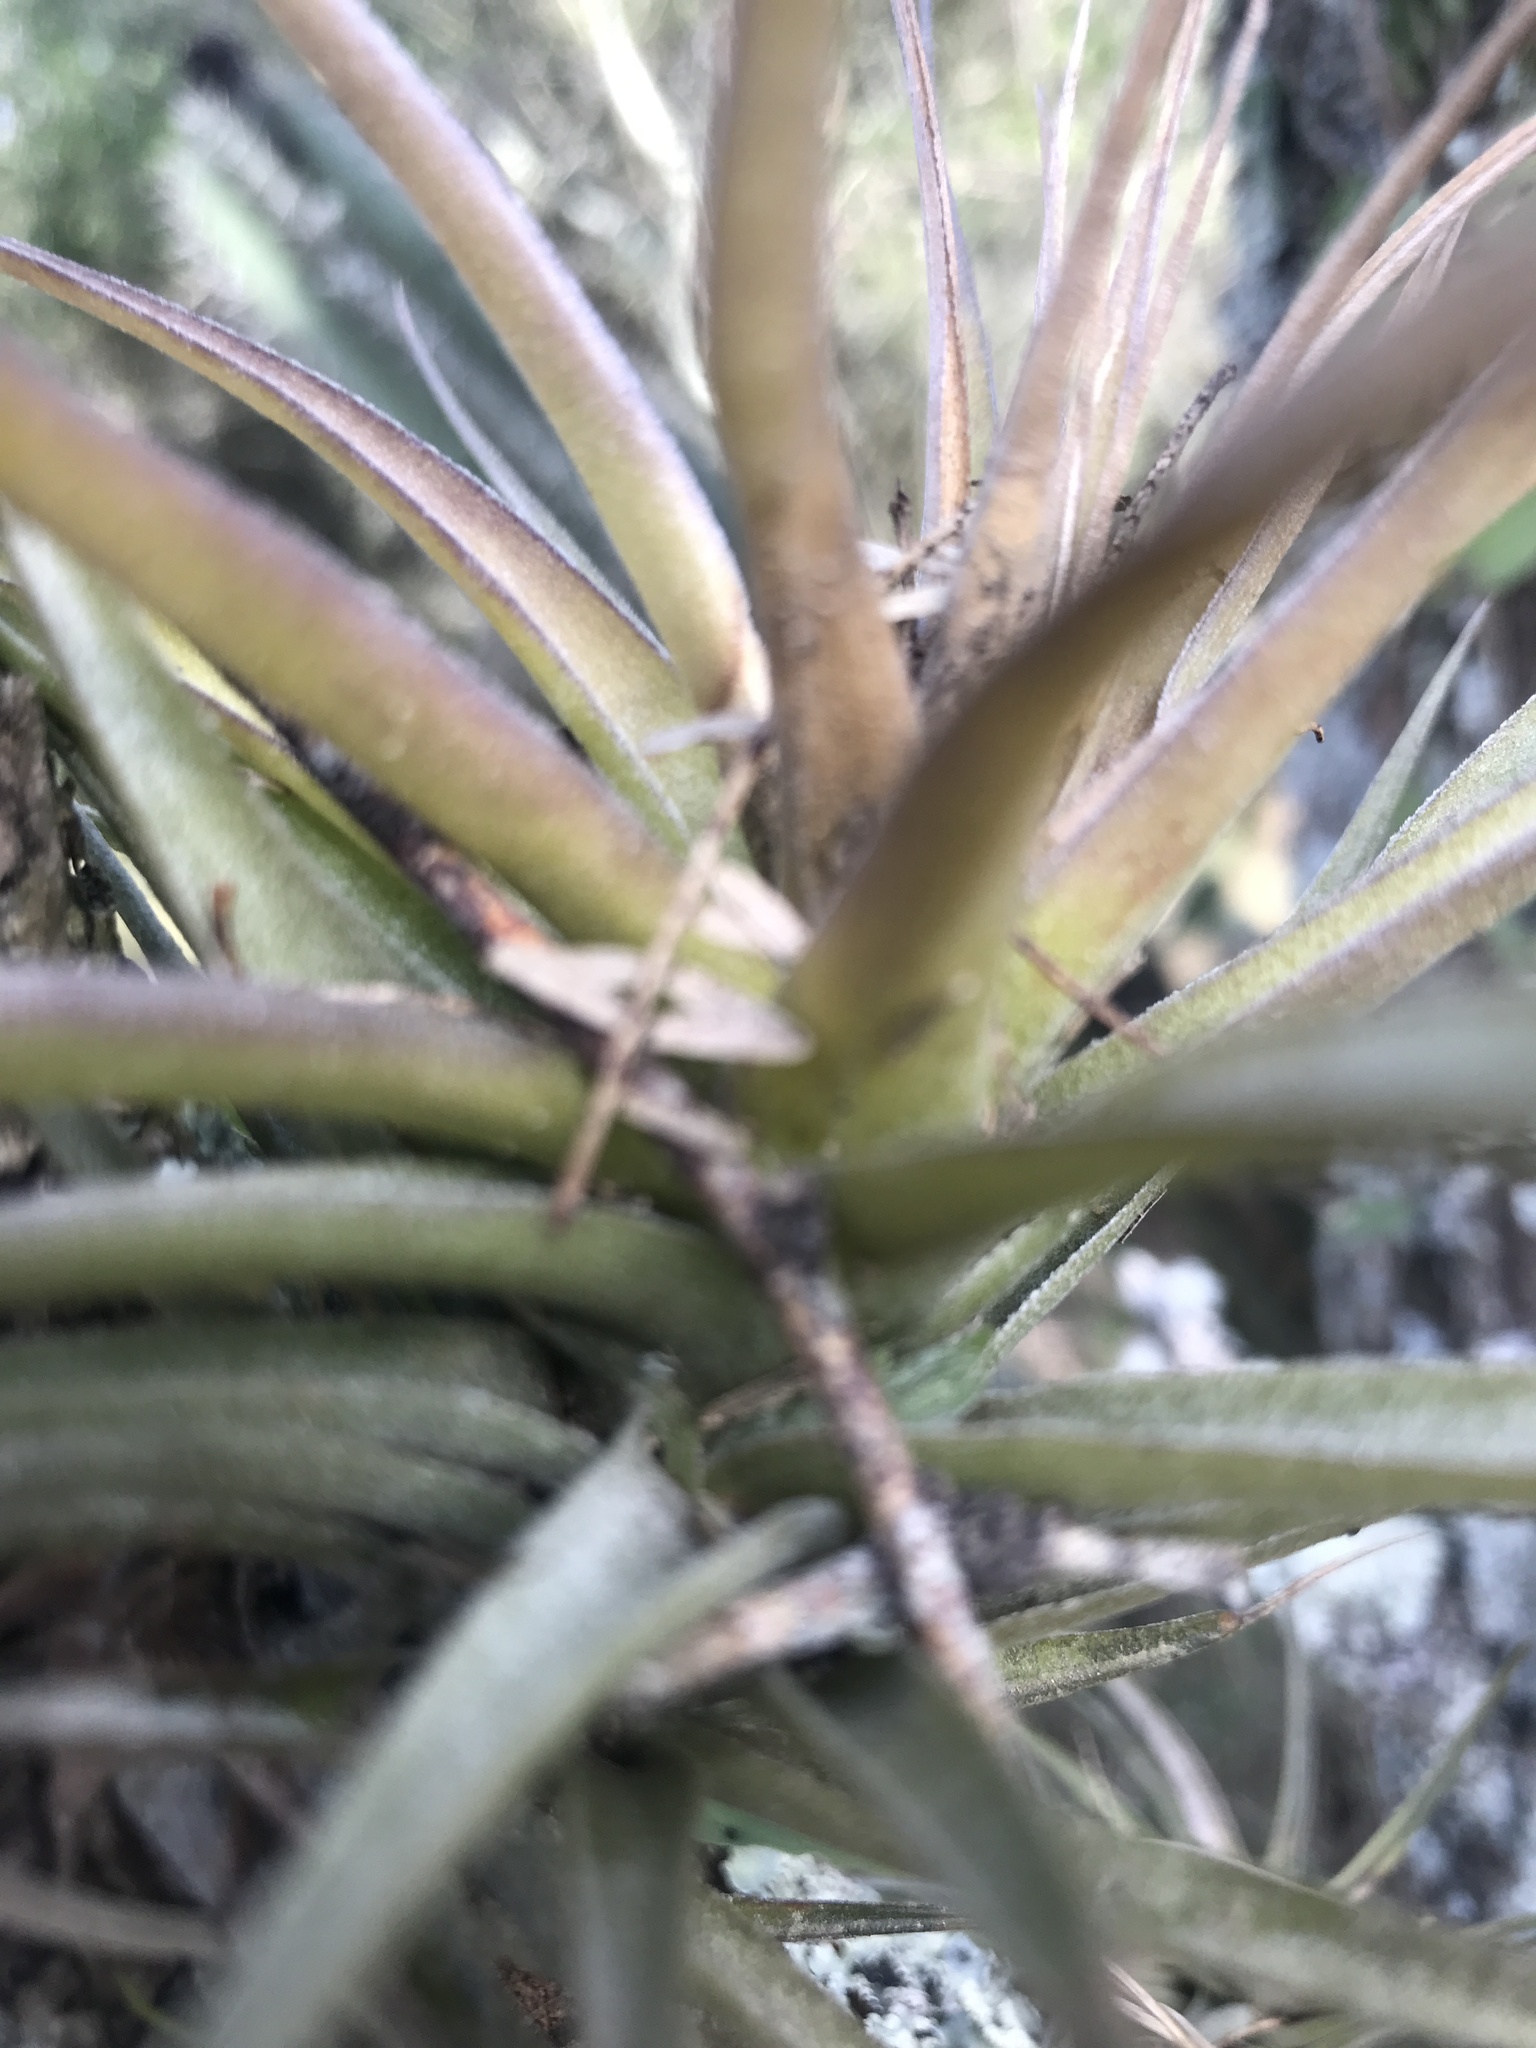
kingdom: Plantae
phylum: Tracheophyta
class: Liliopsida
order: Poales
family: Bromeliaceae
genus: Tillandsia
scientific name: Tillandsia aeranthos
